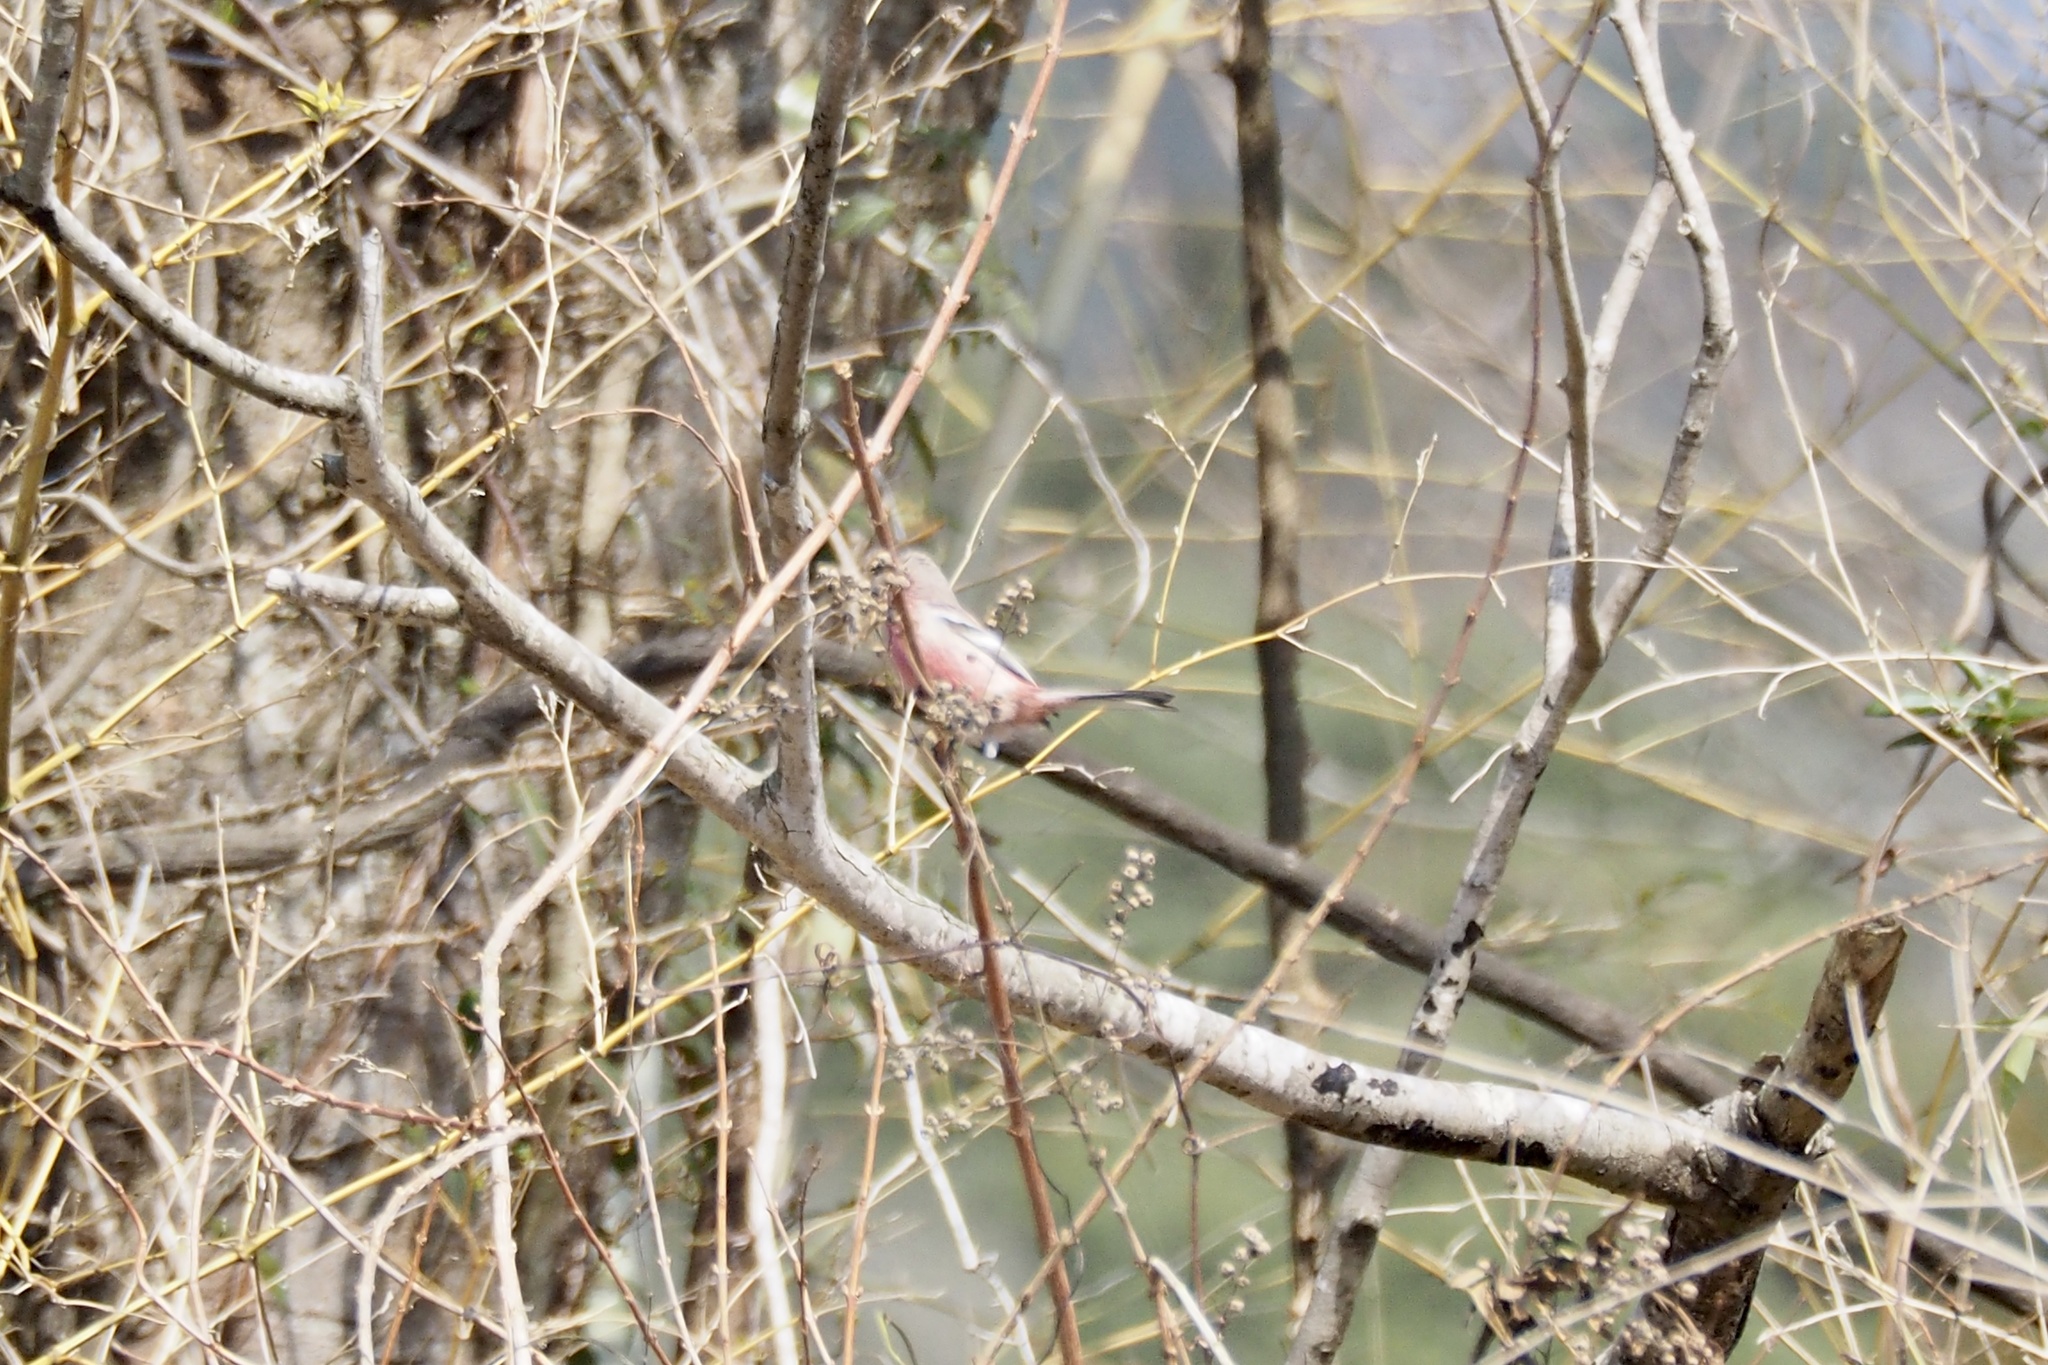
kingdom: Animalia
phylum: Chordata
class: Aves
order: Passeriformes
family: Fringillidae
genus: Carpodacus
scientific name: Carpodacus sibiricus
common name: Long-tailed rosefinch
